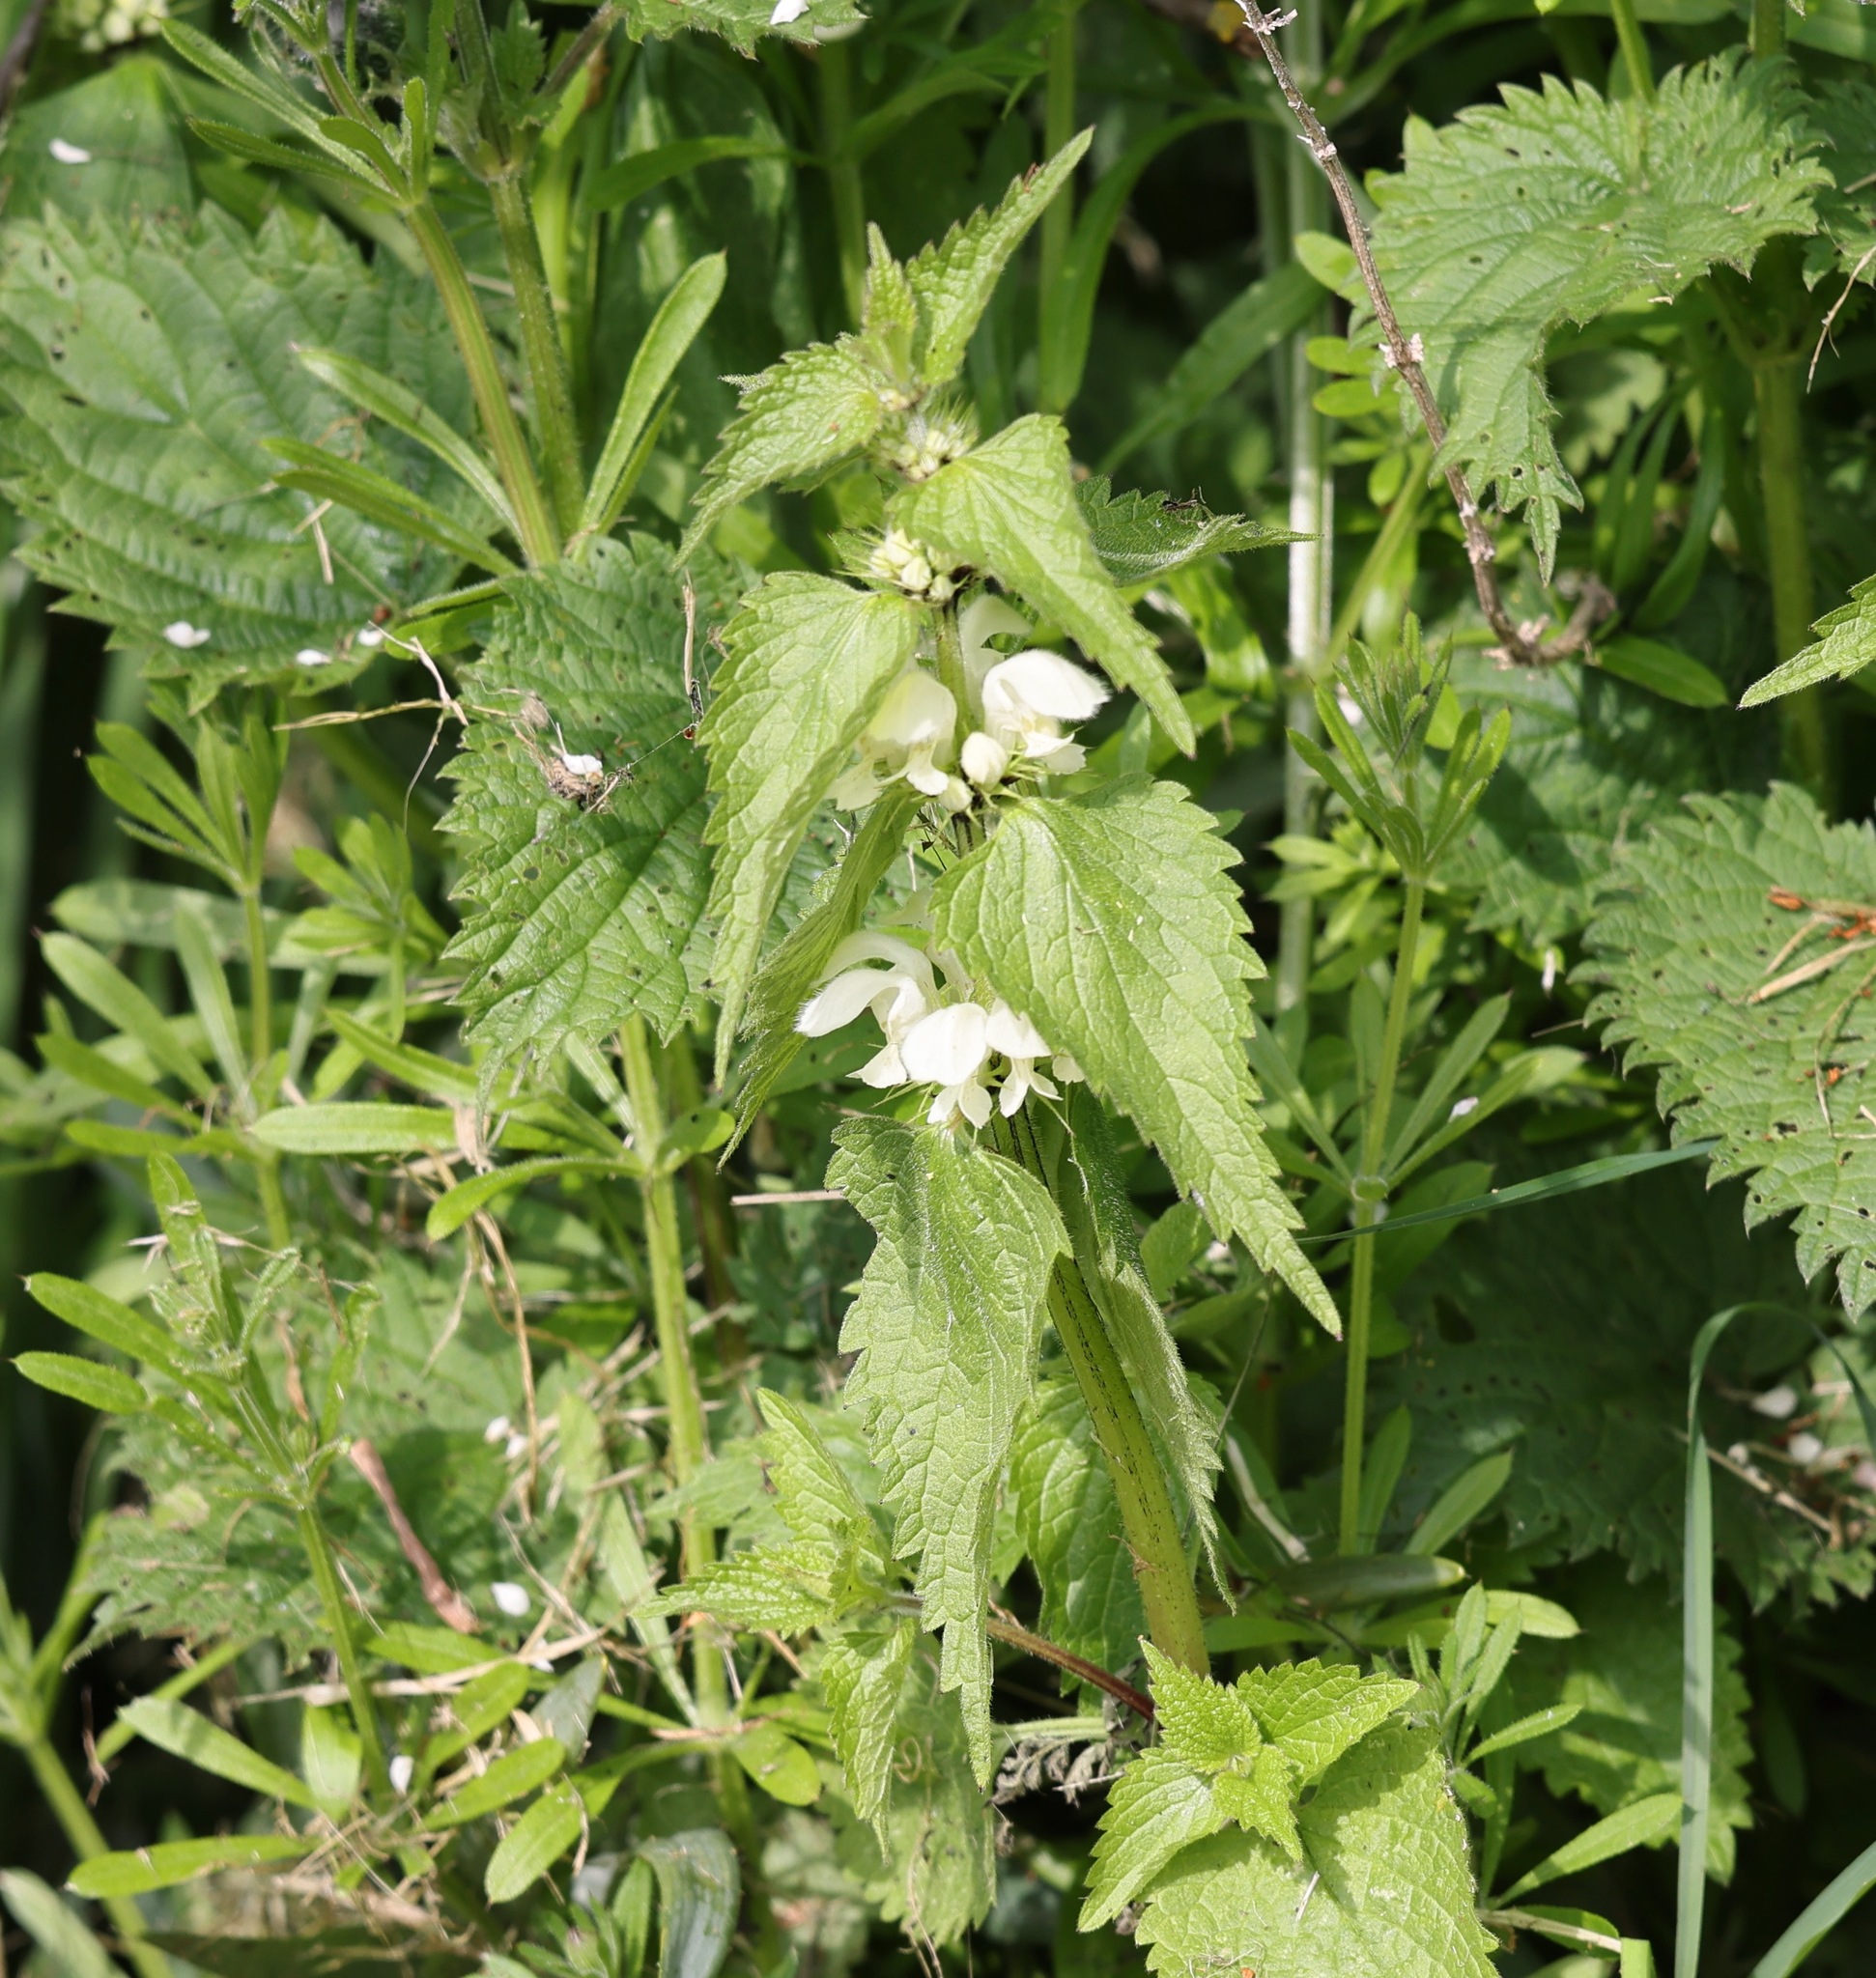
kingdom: Plantae
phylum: Tracheophyta
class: Magnoliopsida
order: Lamiales
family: Lamiaceae
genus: Lamium
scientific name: Lamium album
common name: White dead-nettle
